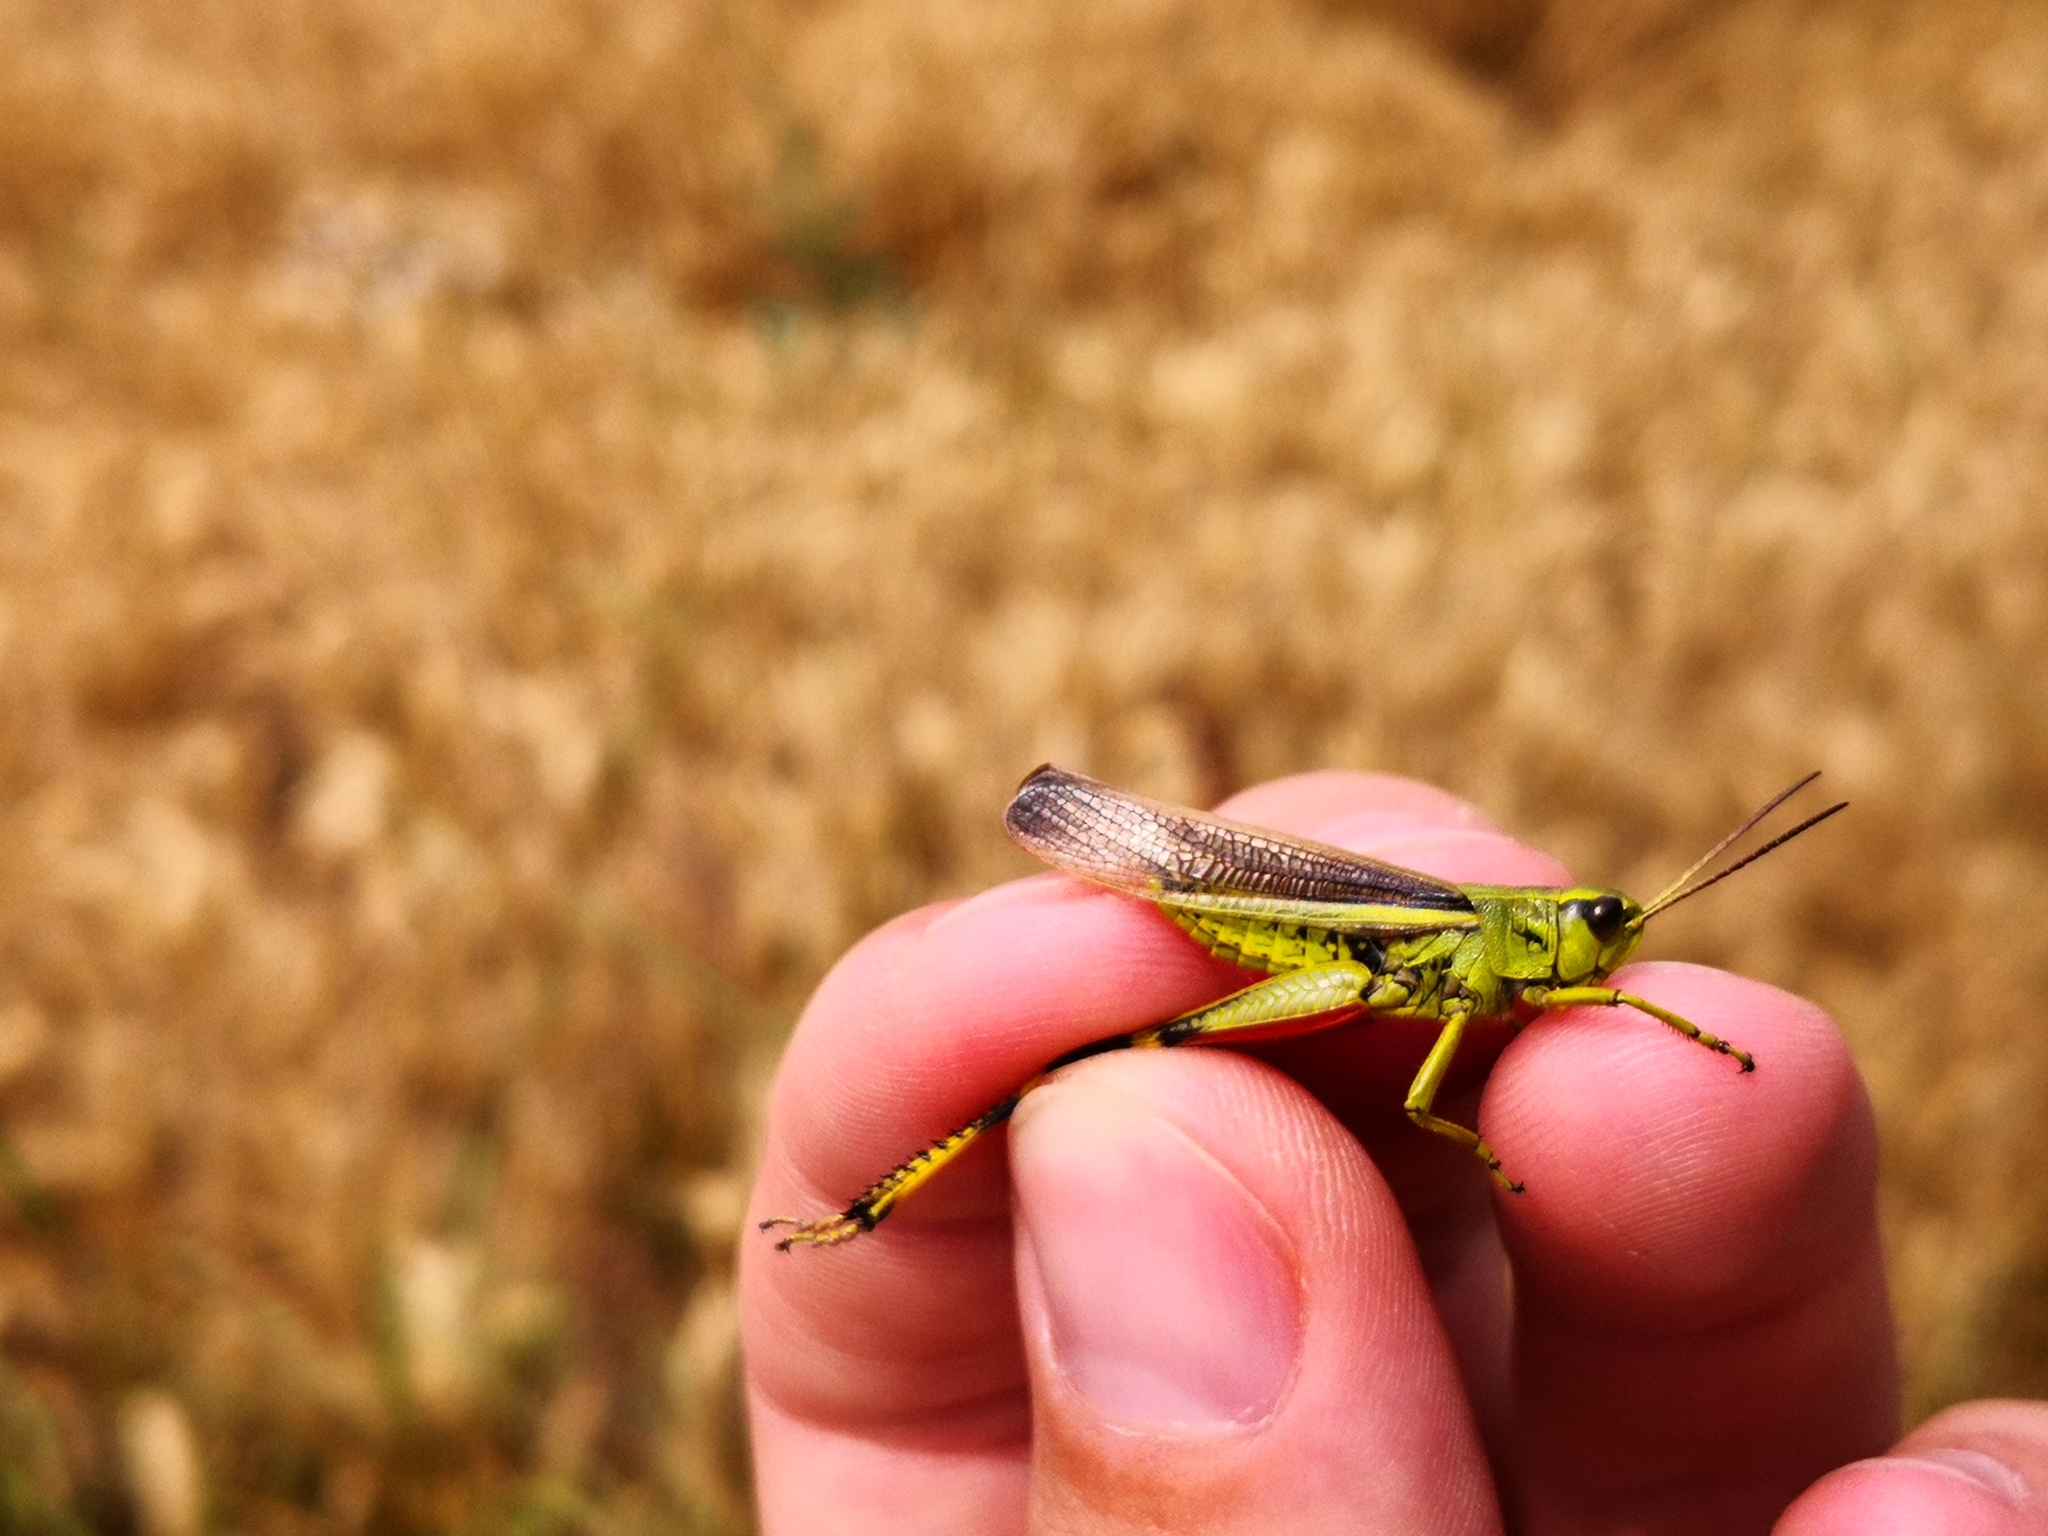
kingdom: Animalia
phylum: Arthropoda
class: Insecta
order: Orthoptera
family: Acrididae
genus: Stethophyma
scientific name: Stethophyma grossum
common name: Large marsh grasshopper
